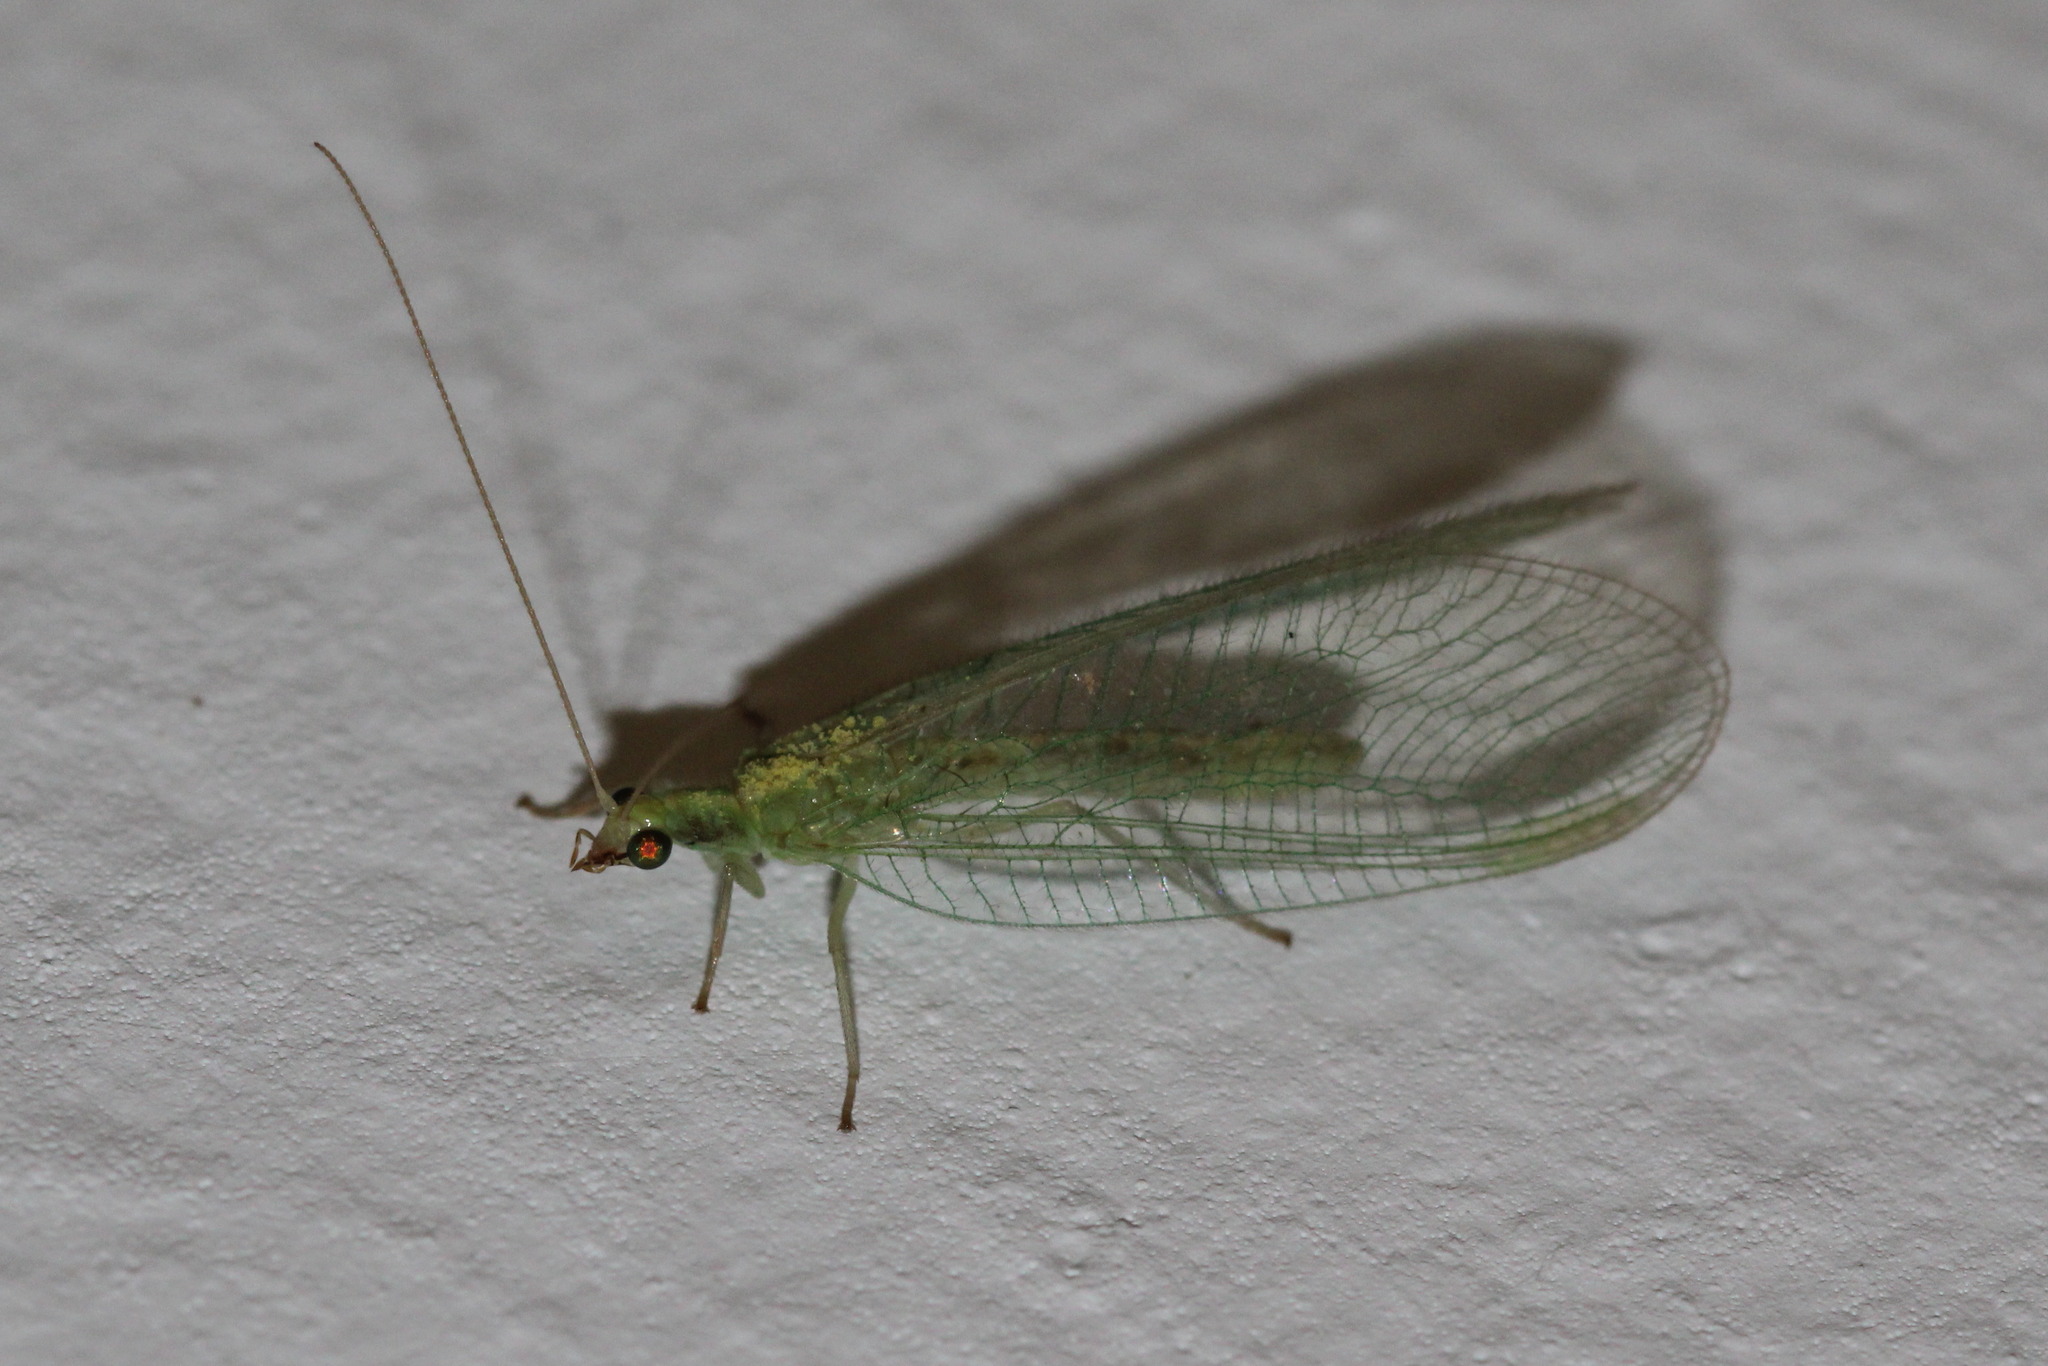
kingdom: Animalia
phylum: Arthropoda
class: Insecta
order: Neuroptera
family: Chrysopidae
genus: Chrysoperla
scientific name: Chrysoperla
